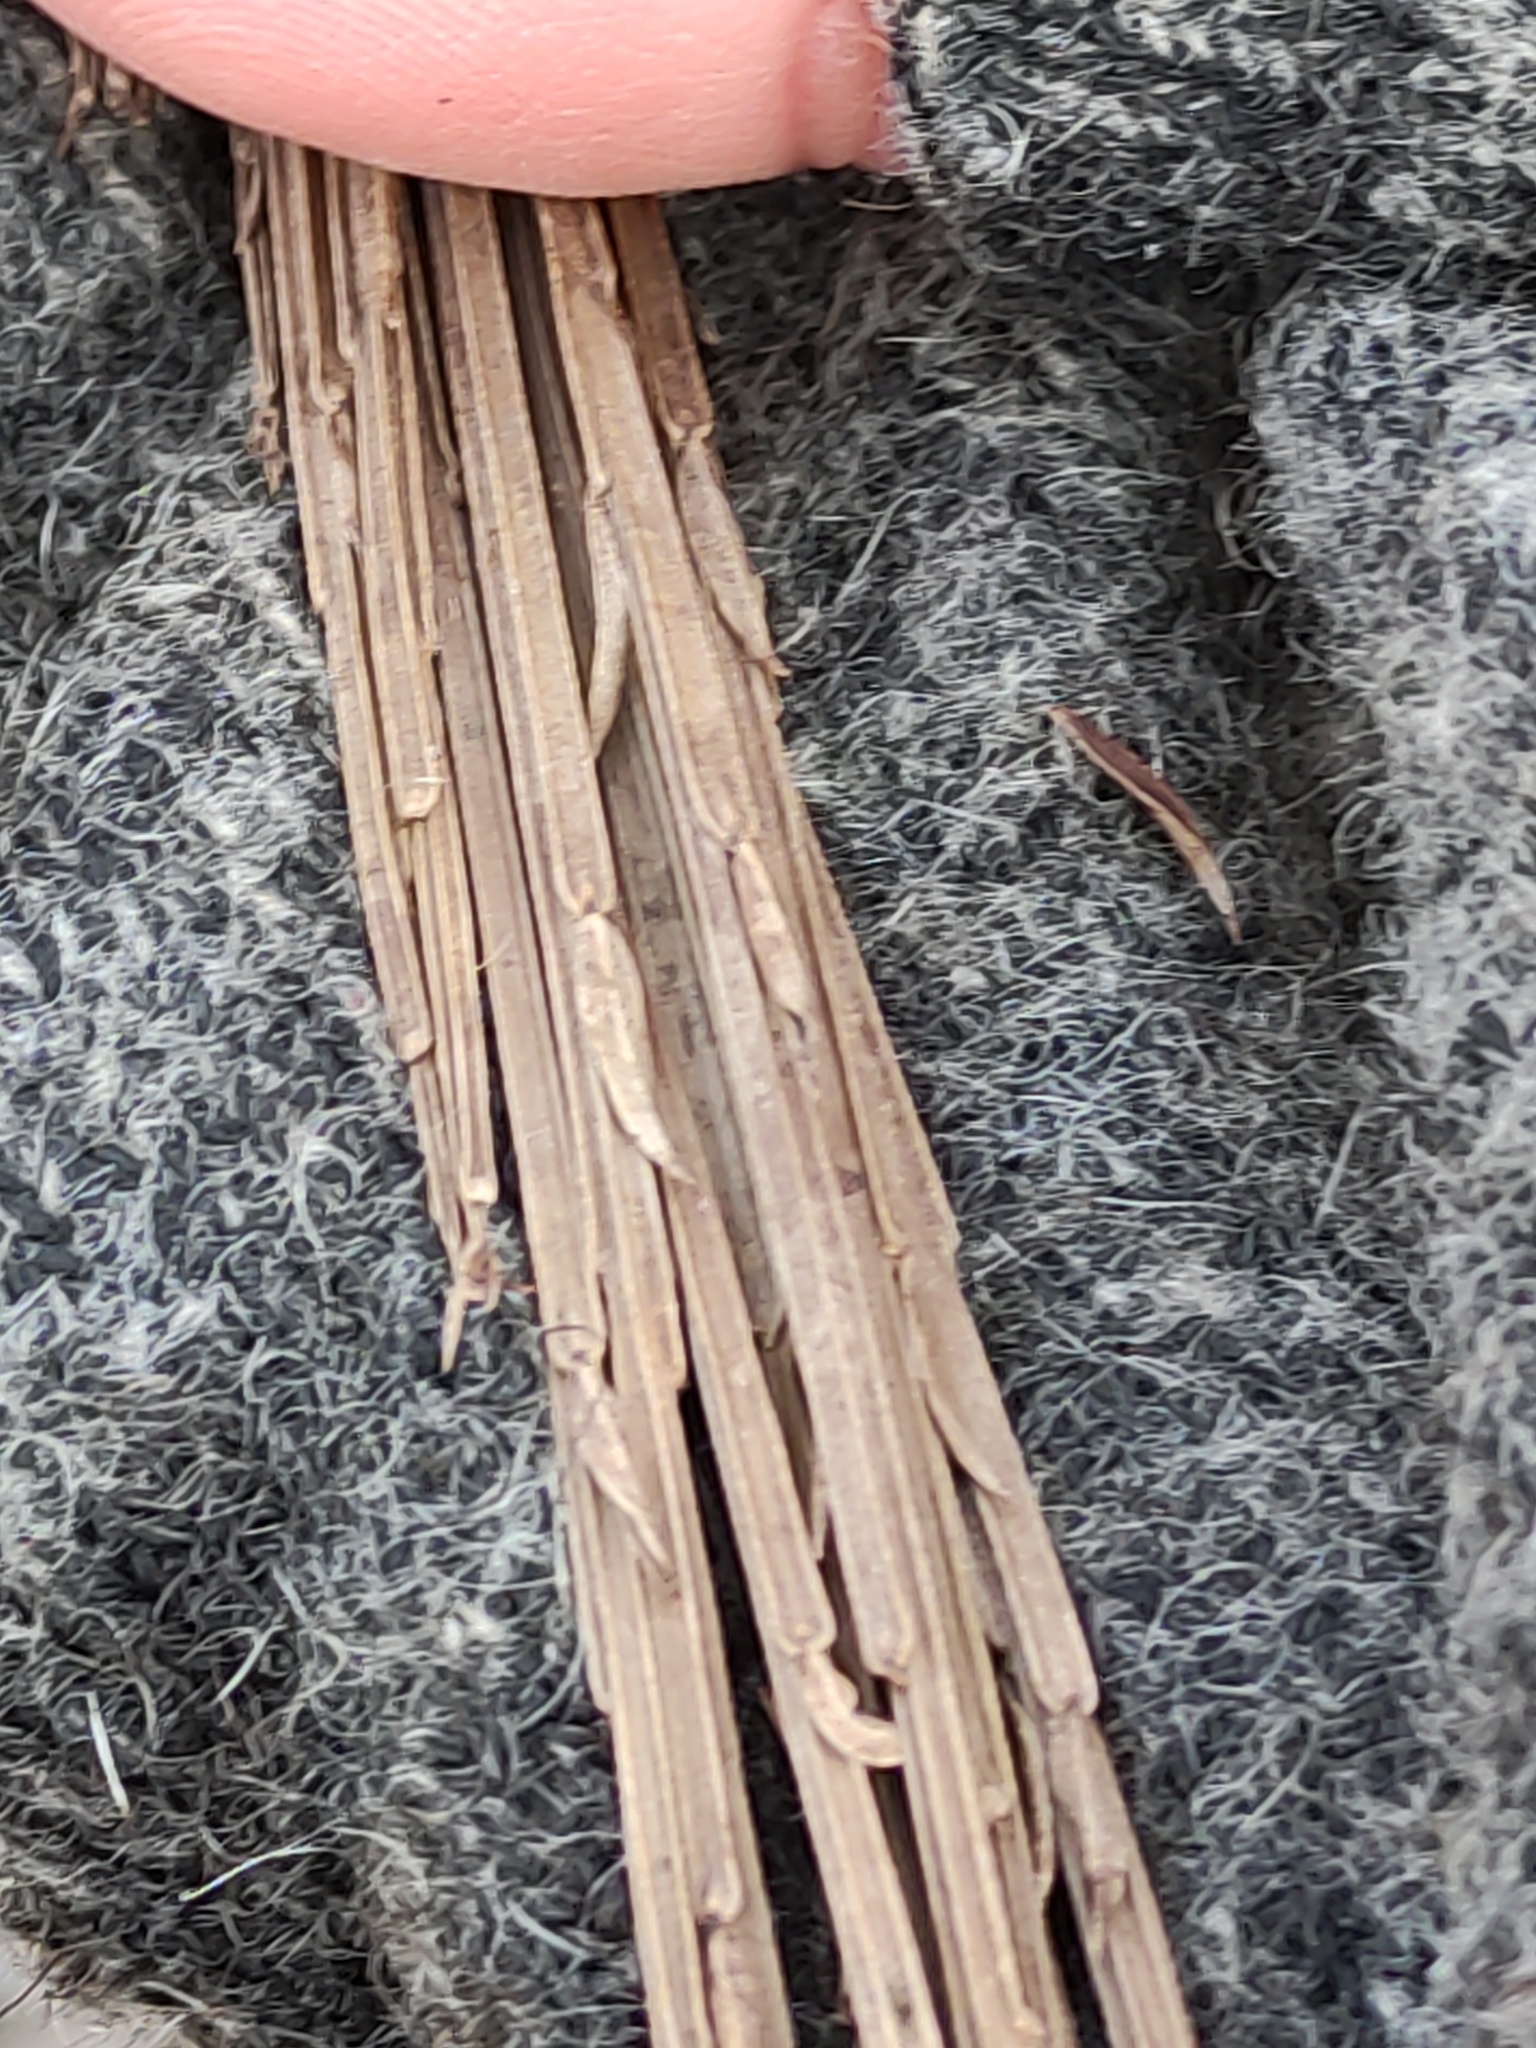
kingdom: Plantae
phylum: Tracheophyta
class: Magnoliopsida
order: Rosales
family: Rhamnaceae
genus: Discaria
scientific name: Discaria toumatou
